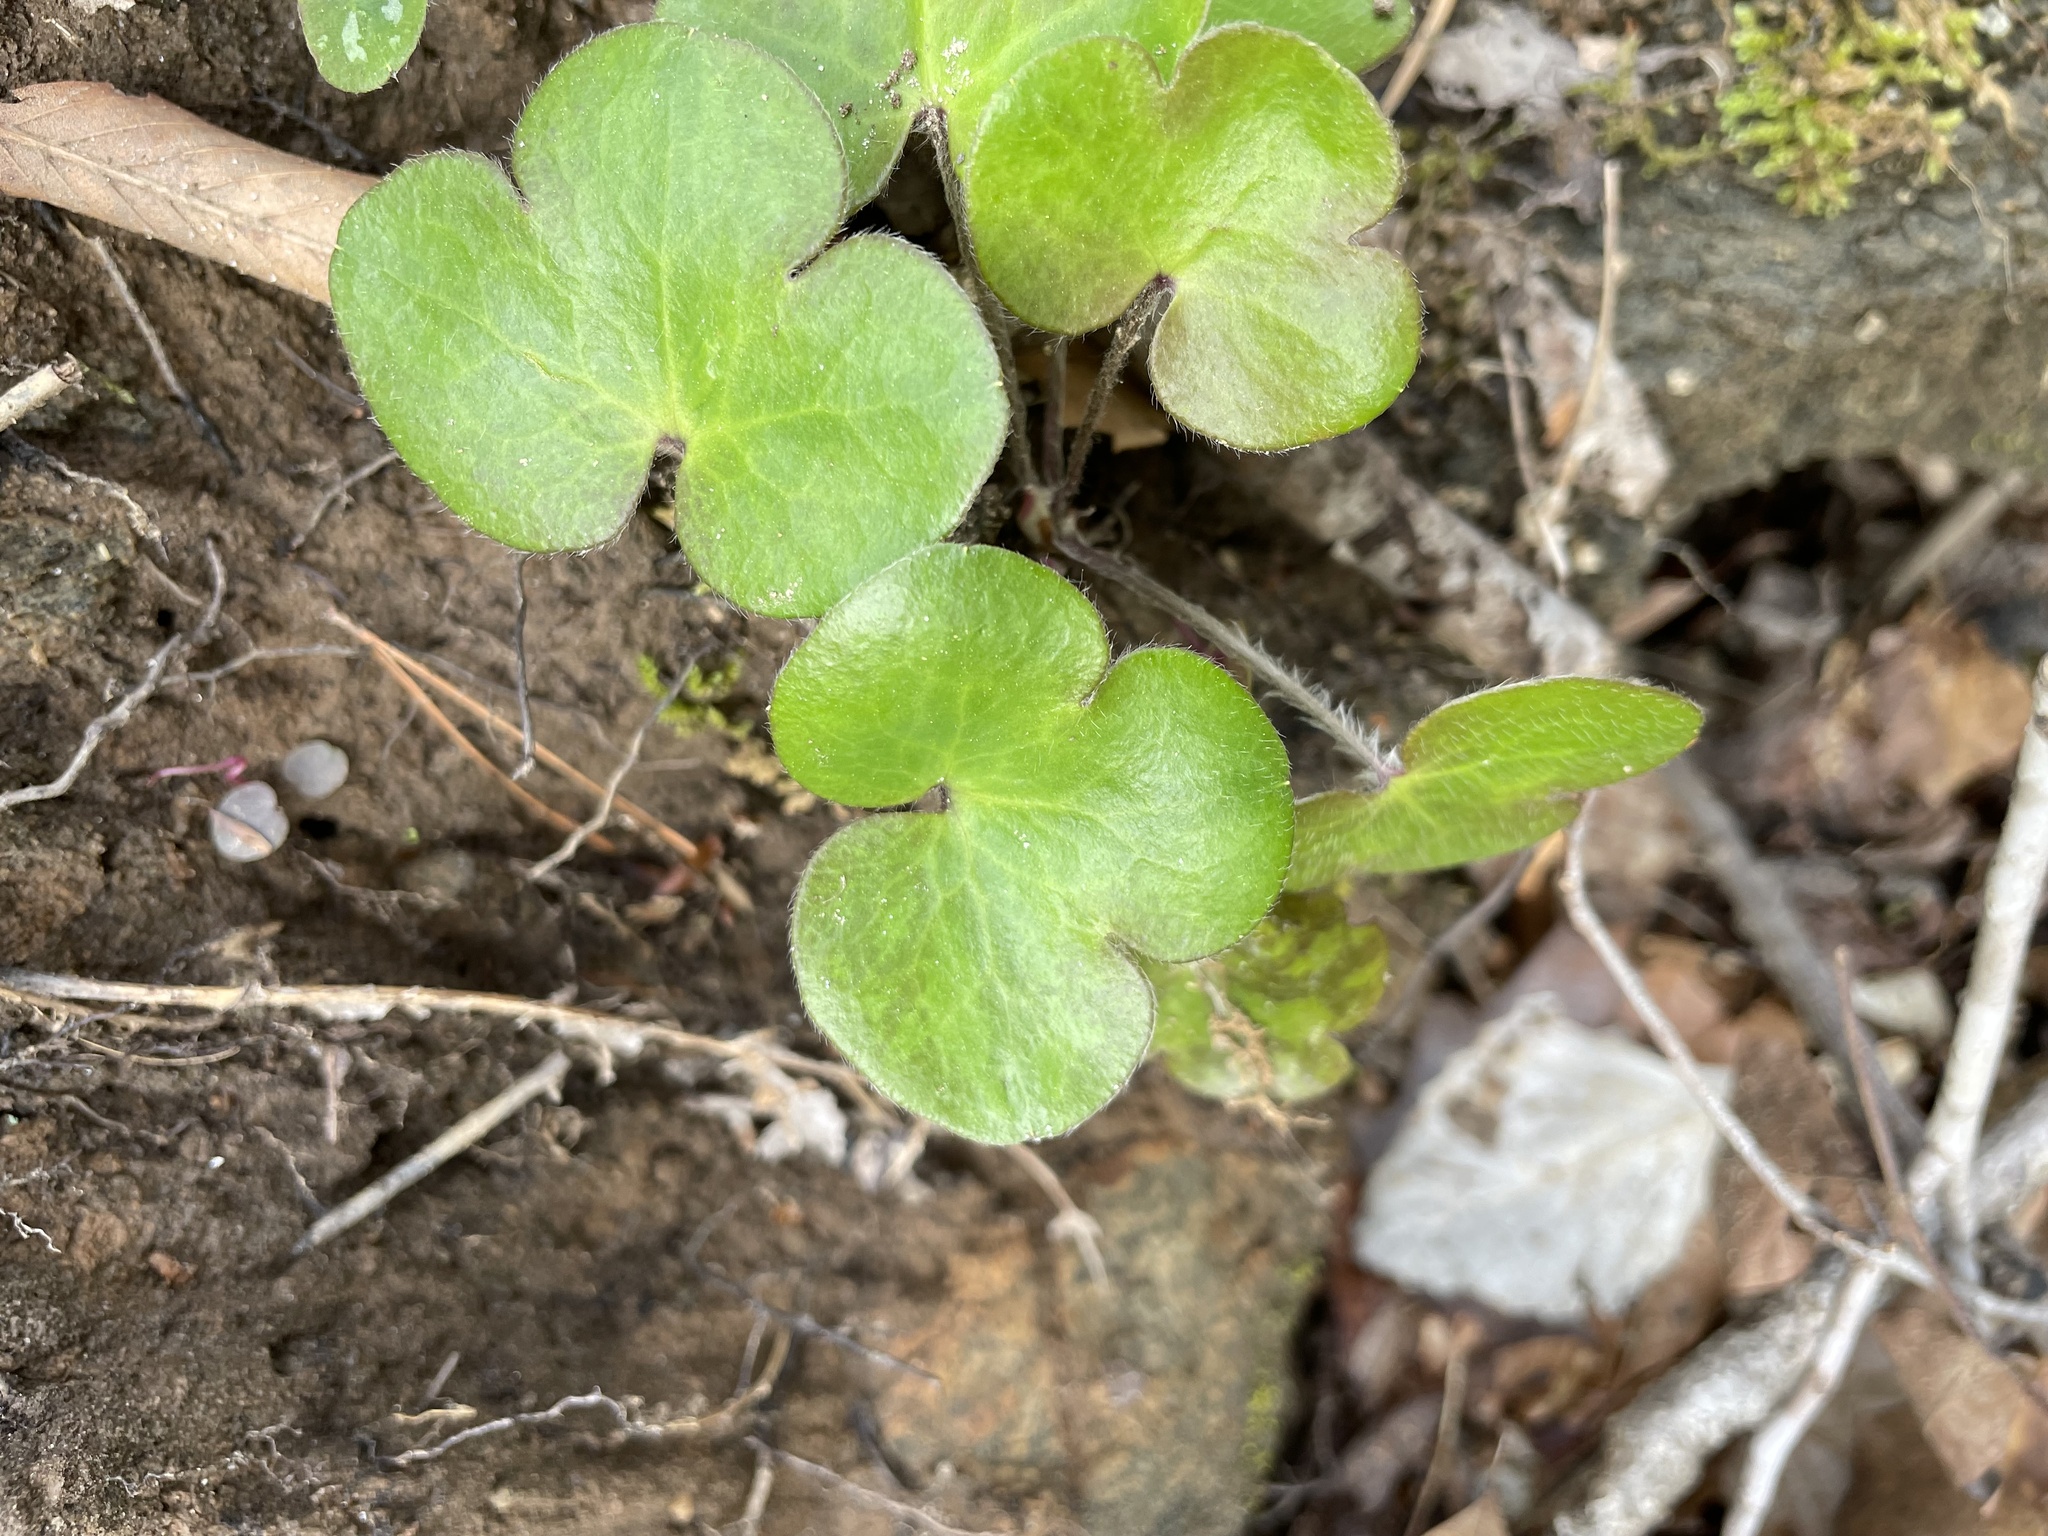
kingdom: Plantae
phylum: Tracheophyta
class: Magnoliopsida
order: Ranunculales
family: Ranunculaceae
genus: Hepatica
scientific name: Hepatica americana
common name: American hepatica
